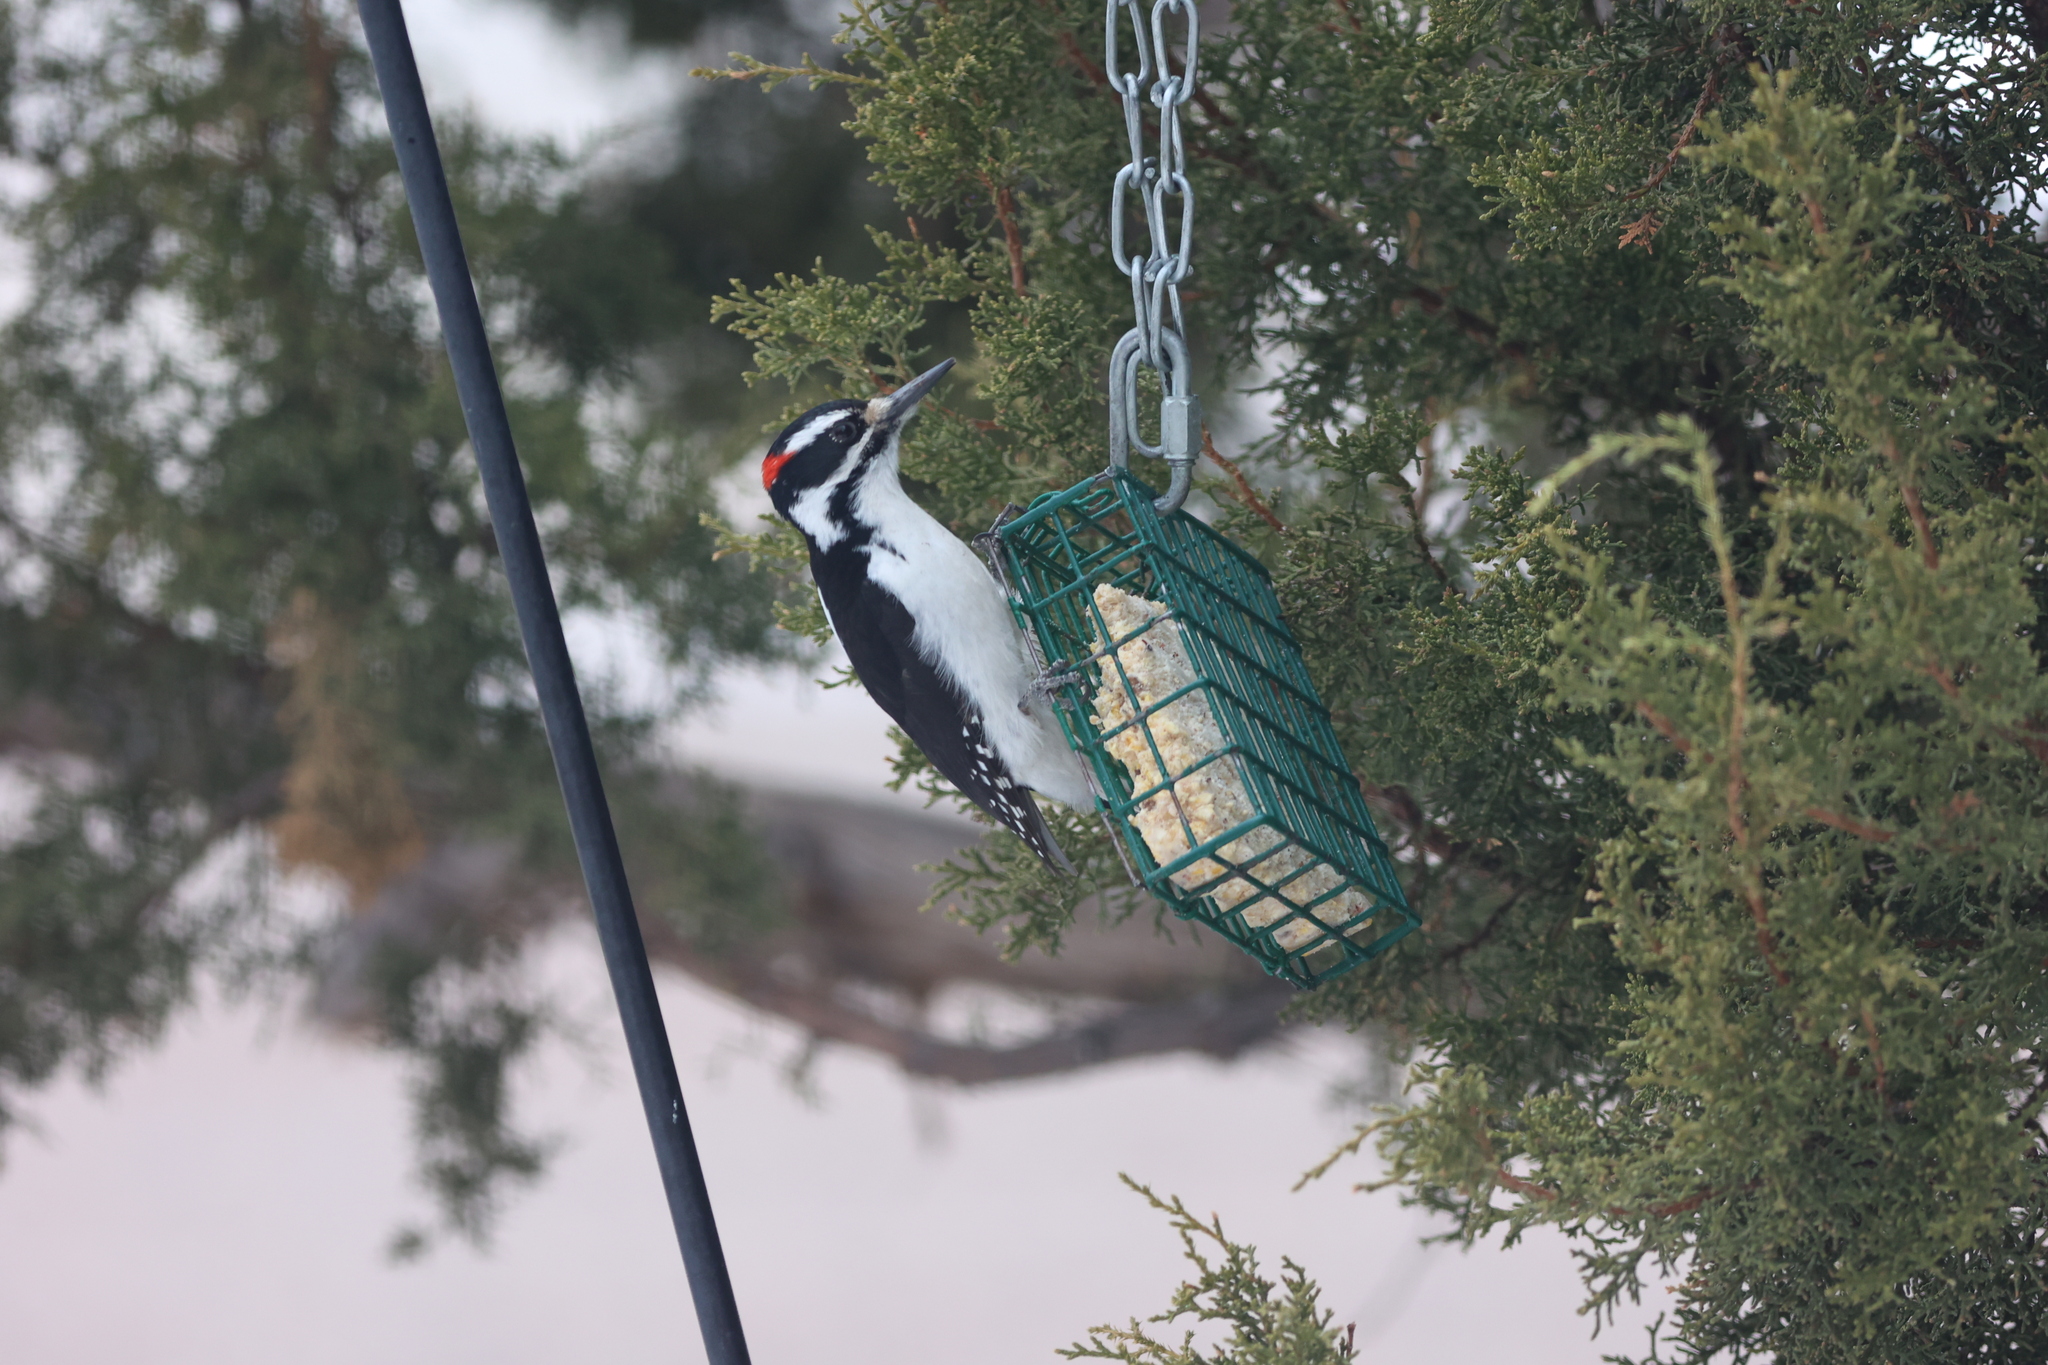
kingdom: Animalia
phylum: Chordata
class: Aves
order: Piciformes
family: Picidae
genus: Leuconotopicus
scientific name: Leuconotopicus villosus
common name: Hairy woodpecker
